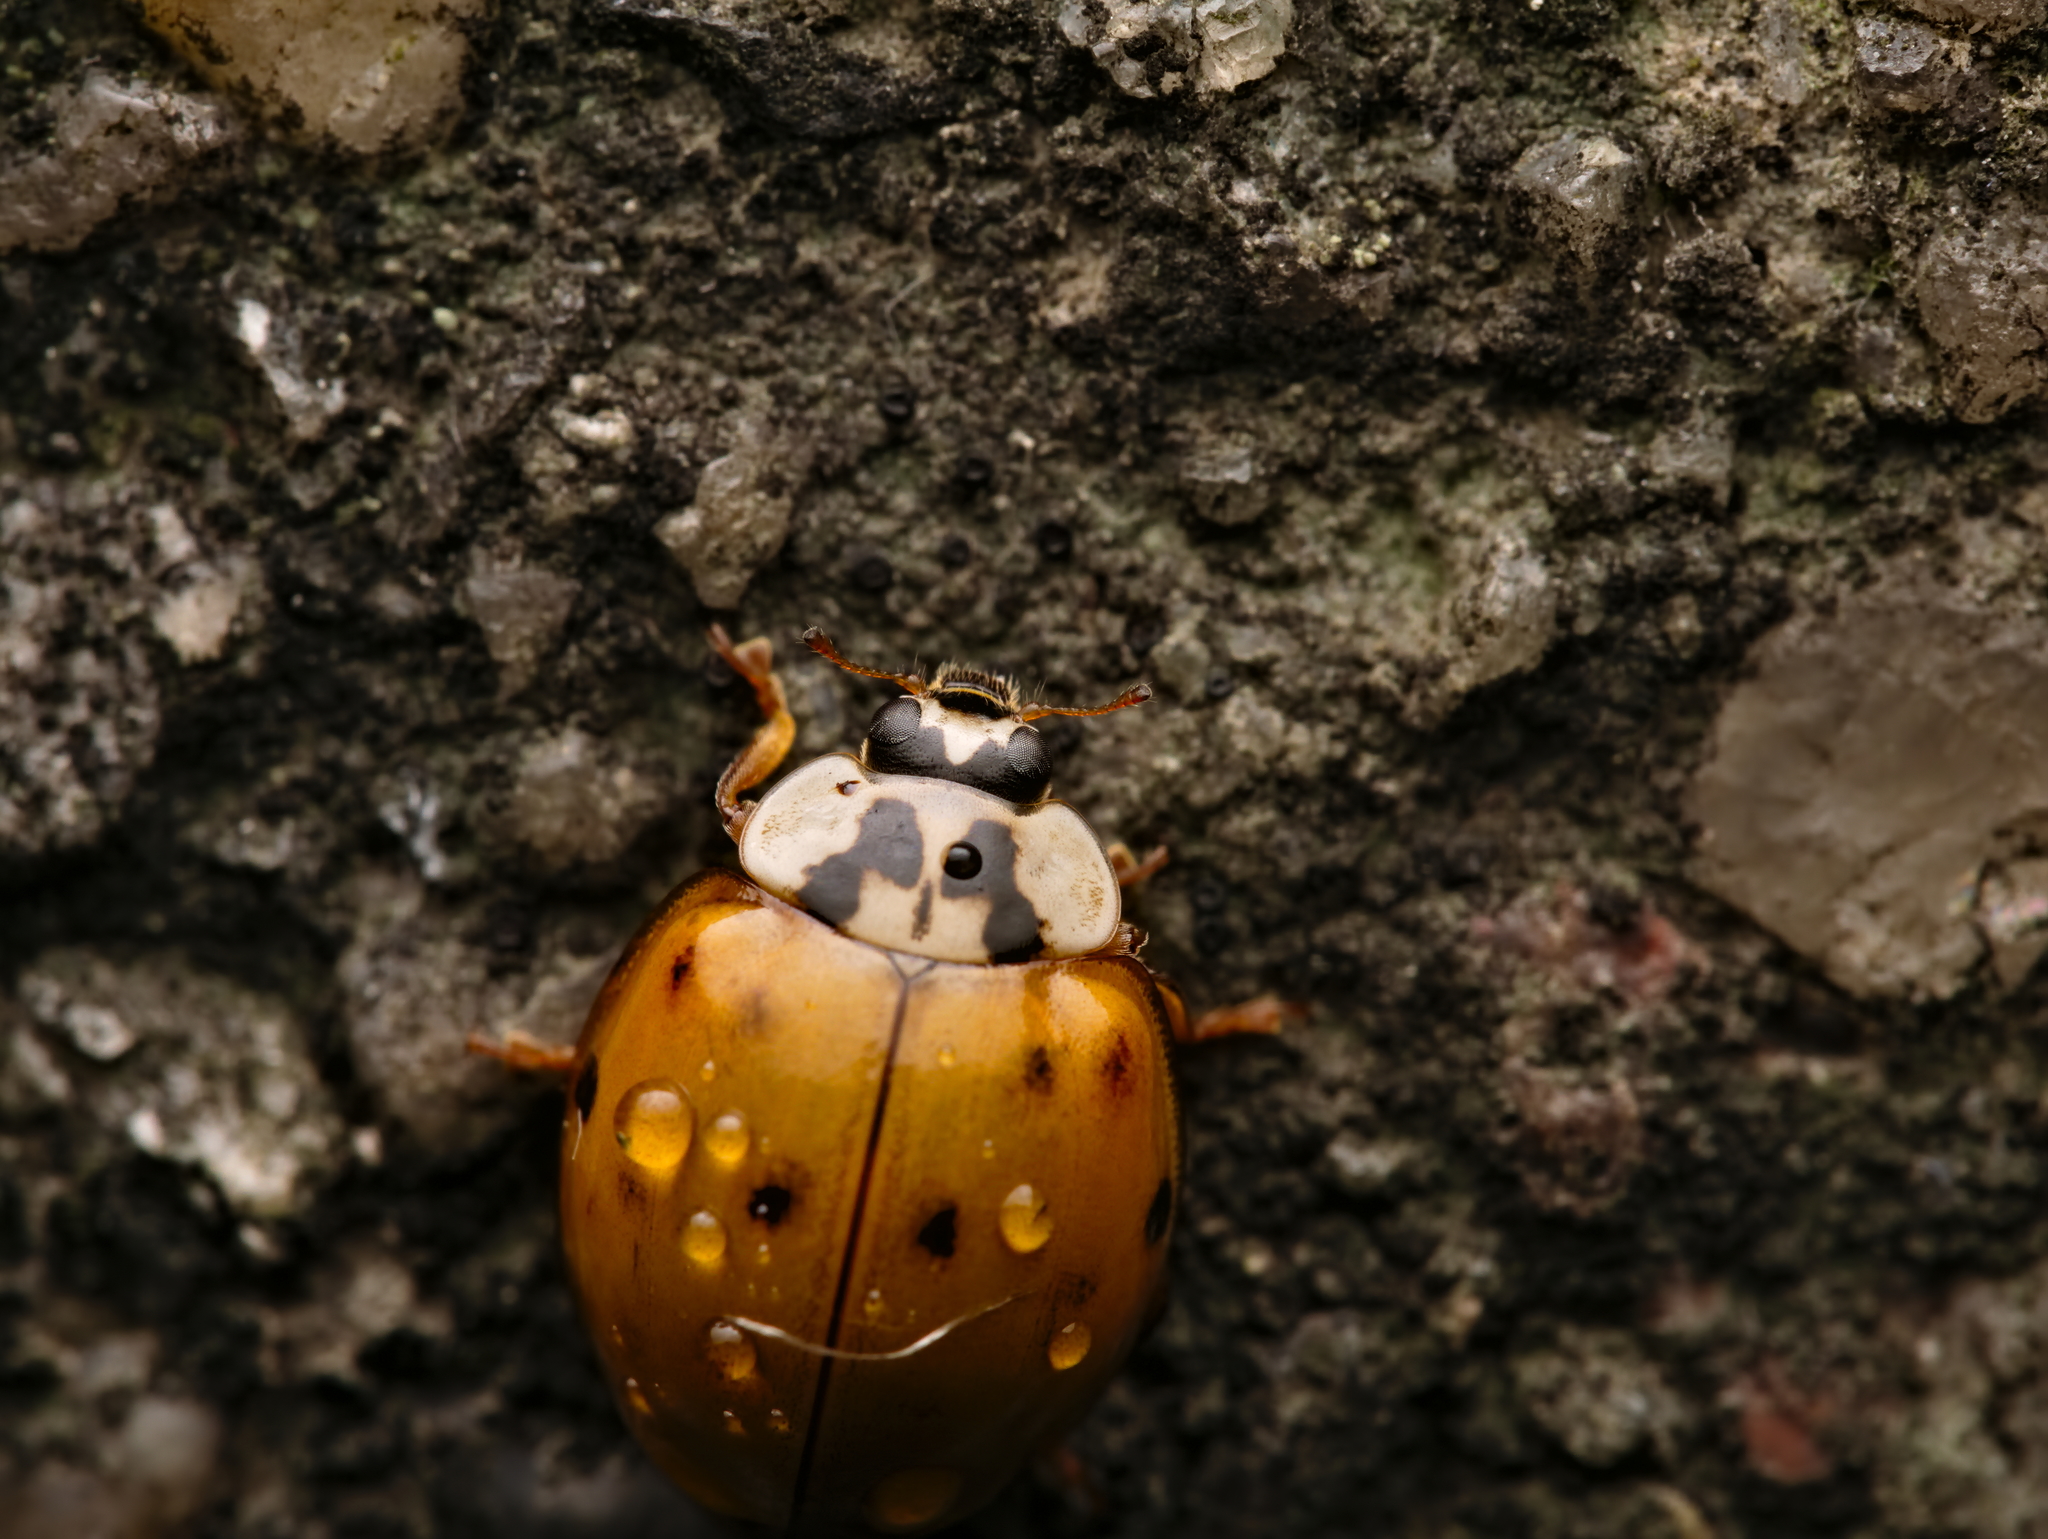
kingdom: Animalia
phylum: Arthropoda
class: Insecta
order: Coleoptera
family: Coccinellidae
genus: Harmonia
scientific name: Harmonia axyridis
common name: Harlequin ladybird
